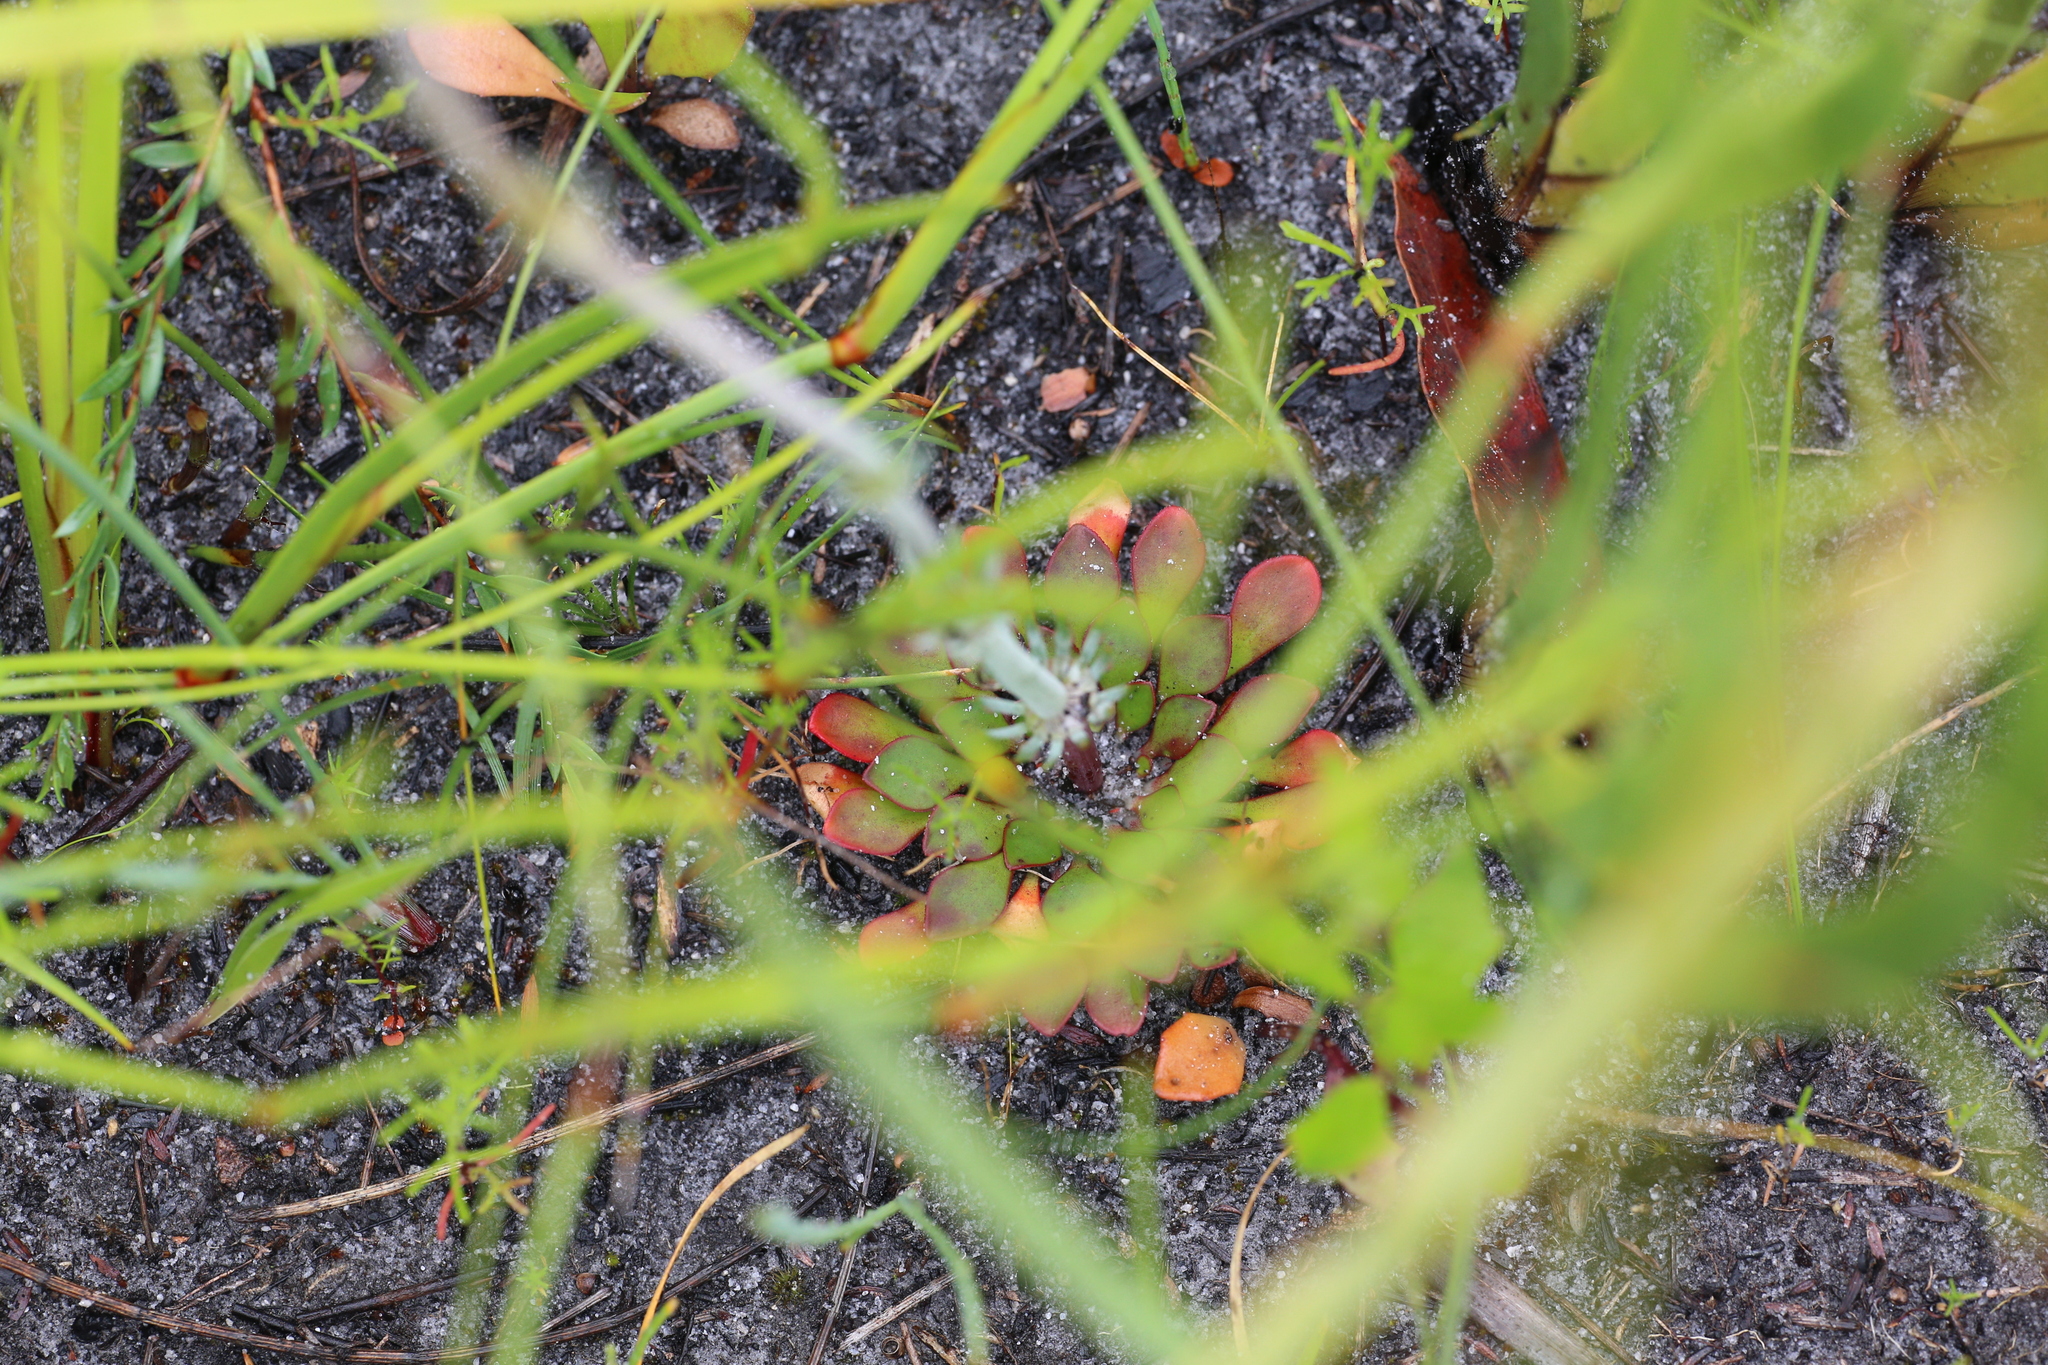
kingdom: Plantae
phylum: Tracheophyta
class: Magnoliopsida
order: Asterales
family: Stylidiaceae
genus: Stylidium
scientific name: Stylidium diversifolium
